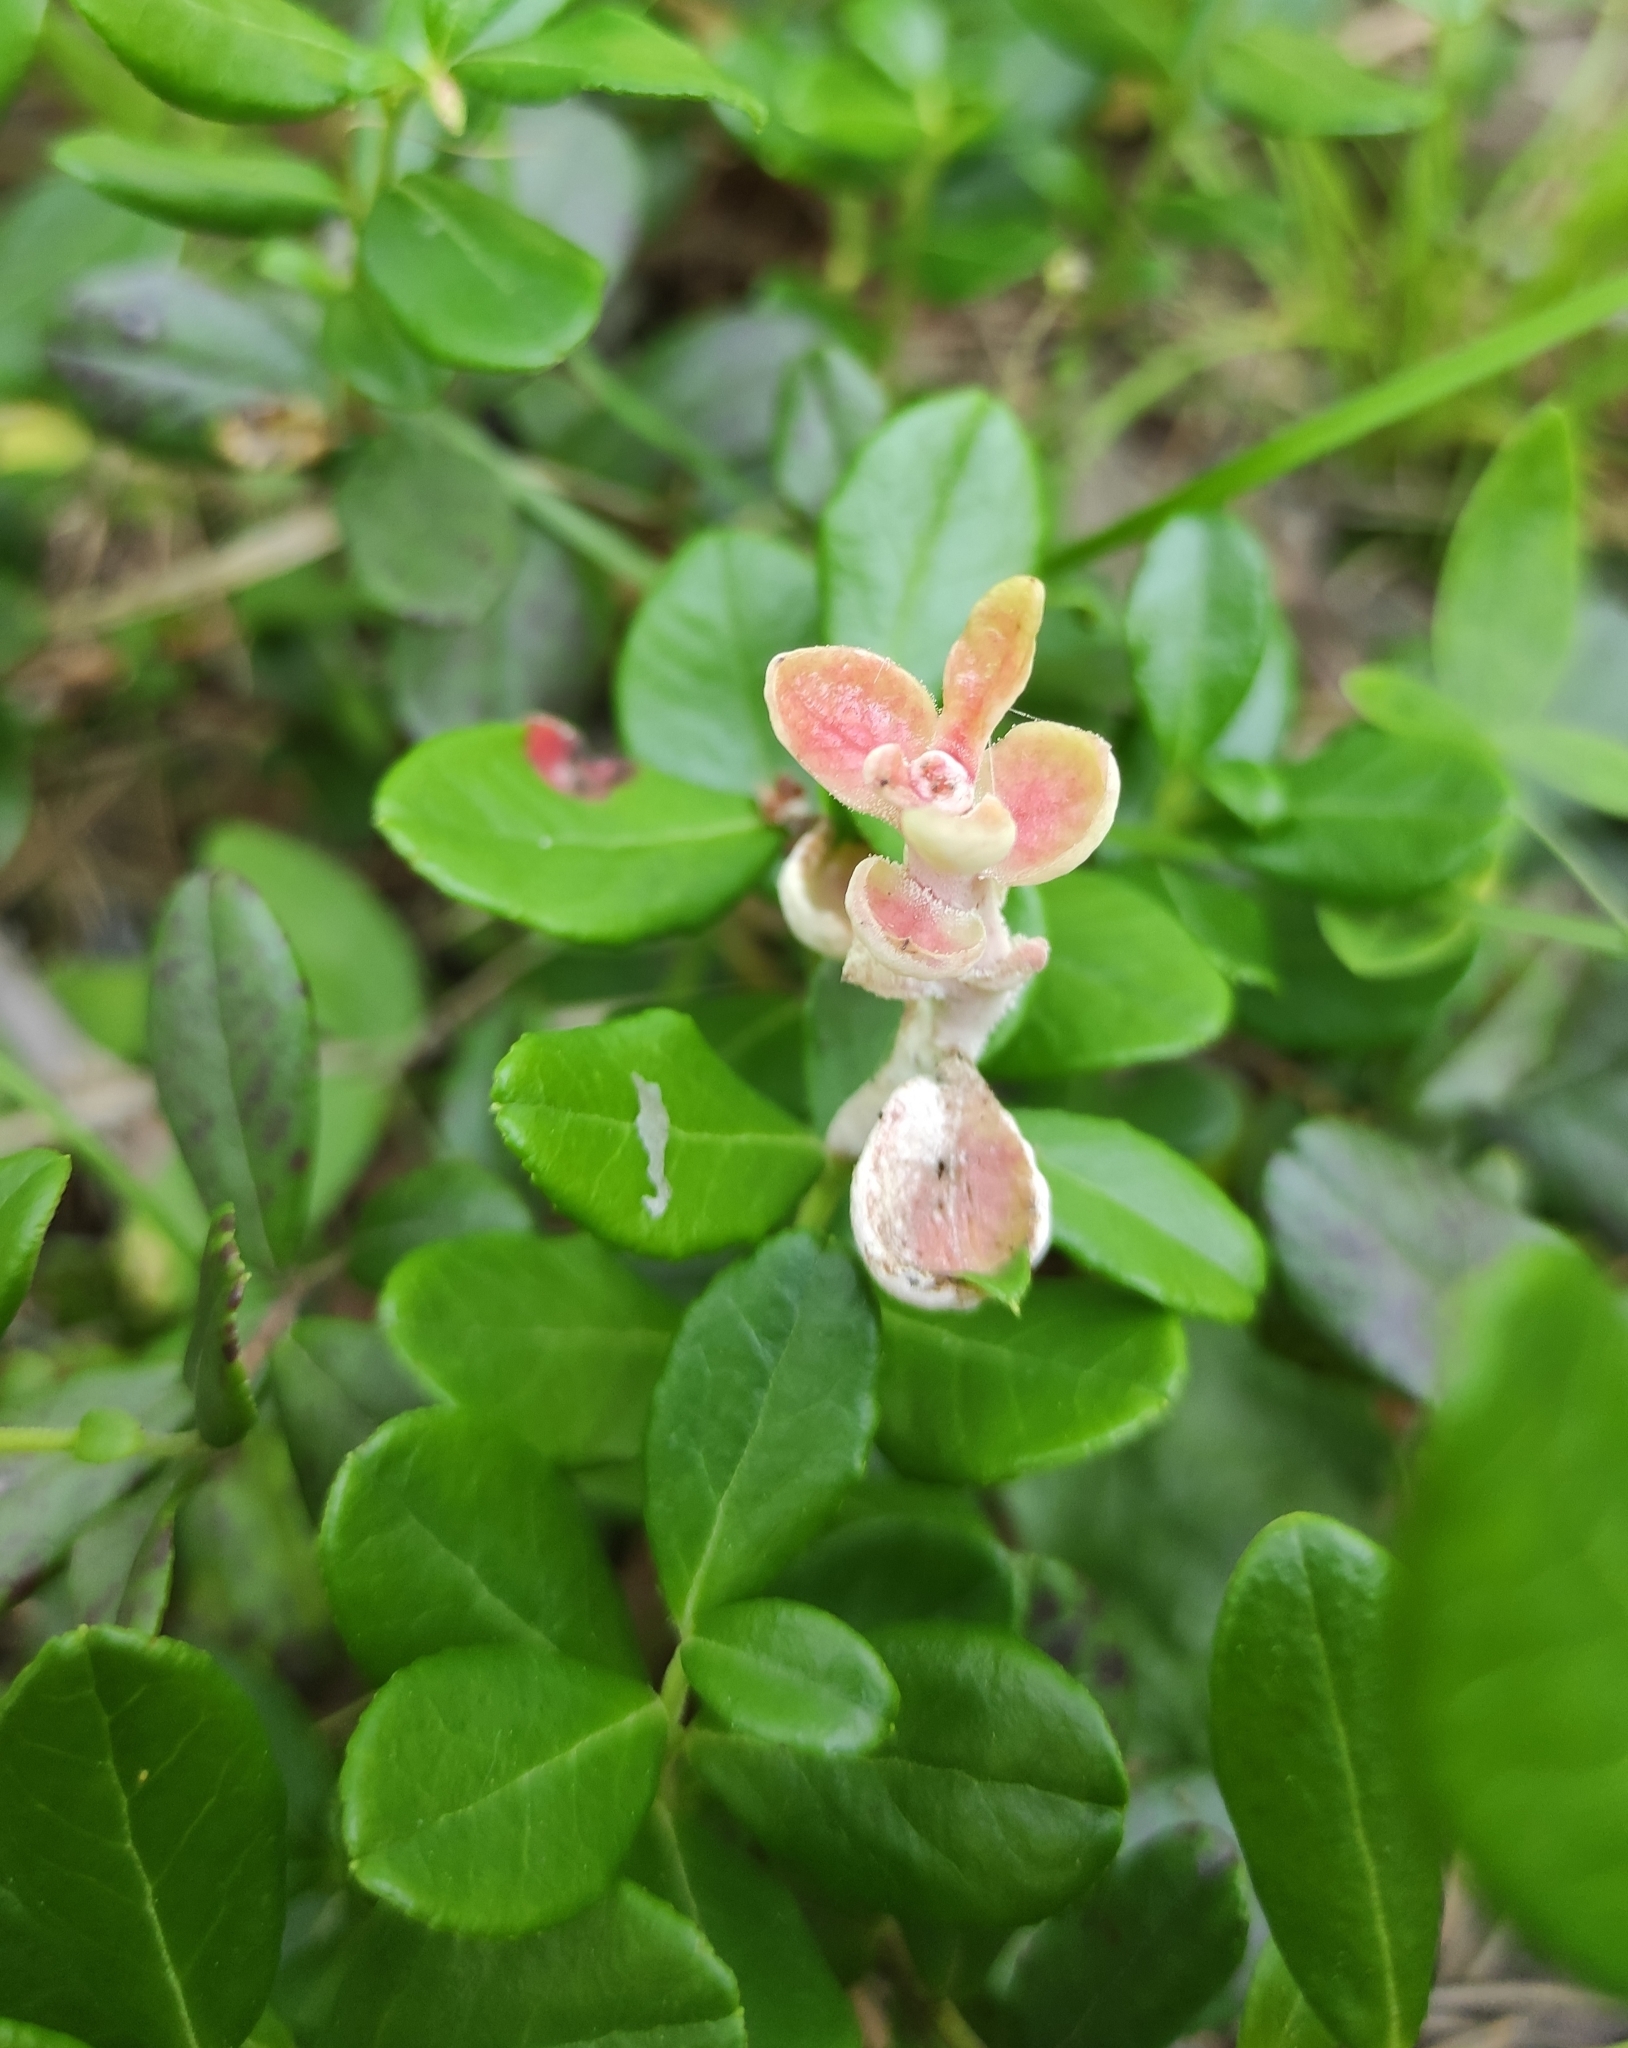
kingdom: Fungi
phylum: Basidiomycota
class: Exobasidiomycetes
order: Exobasidiales
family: Exobasidiaceae
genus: Exobasidium
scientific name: Exobasidium vaccinii
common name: Cowberry redleaf
